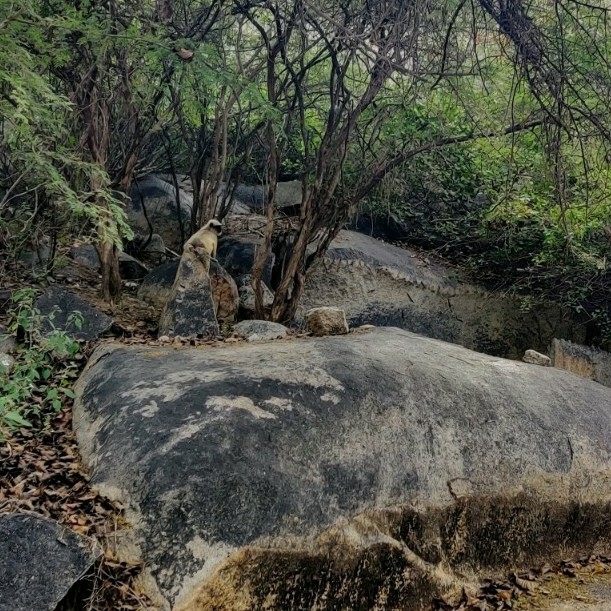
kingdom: Animalia
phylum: Chordata
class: Mammalia
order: Primates
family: Cercopithecidae
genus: Semnopithecus
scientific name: Semnopithecus priam
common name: Tufted gray langur
